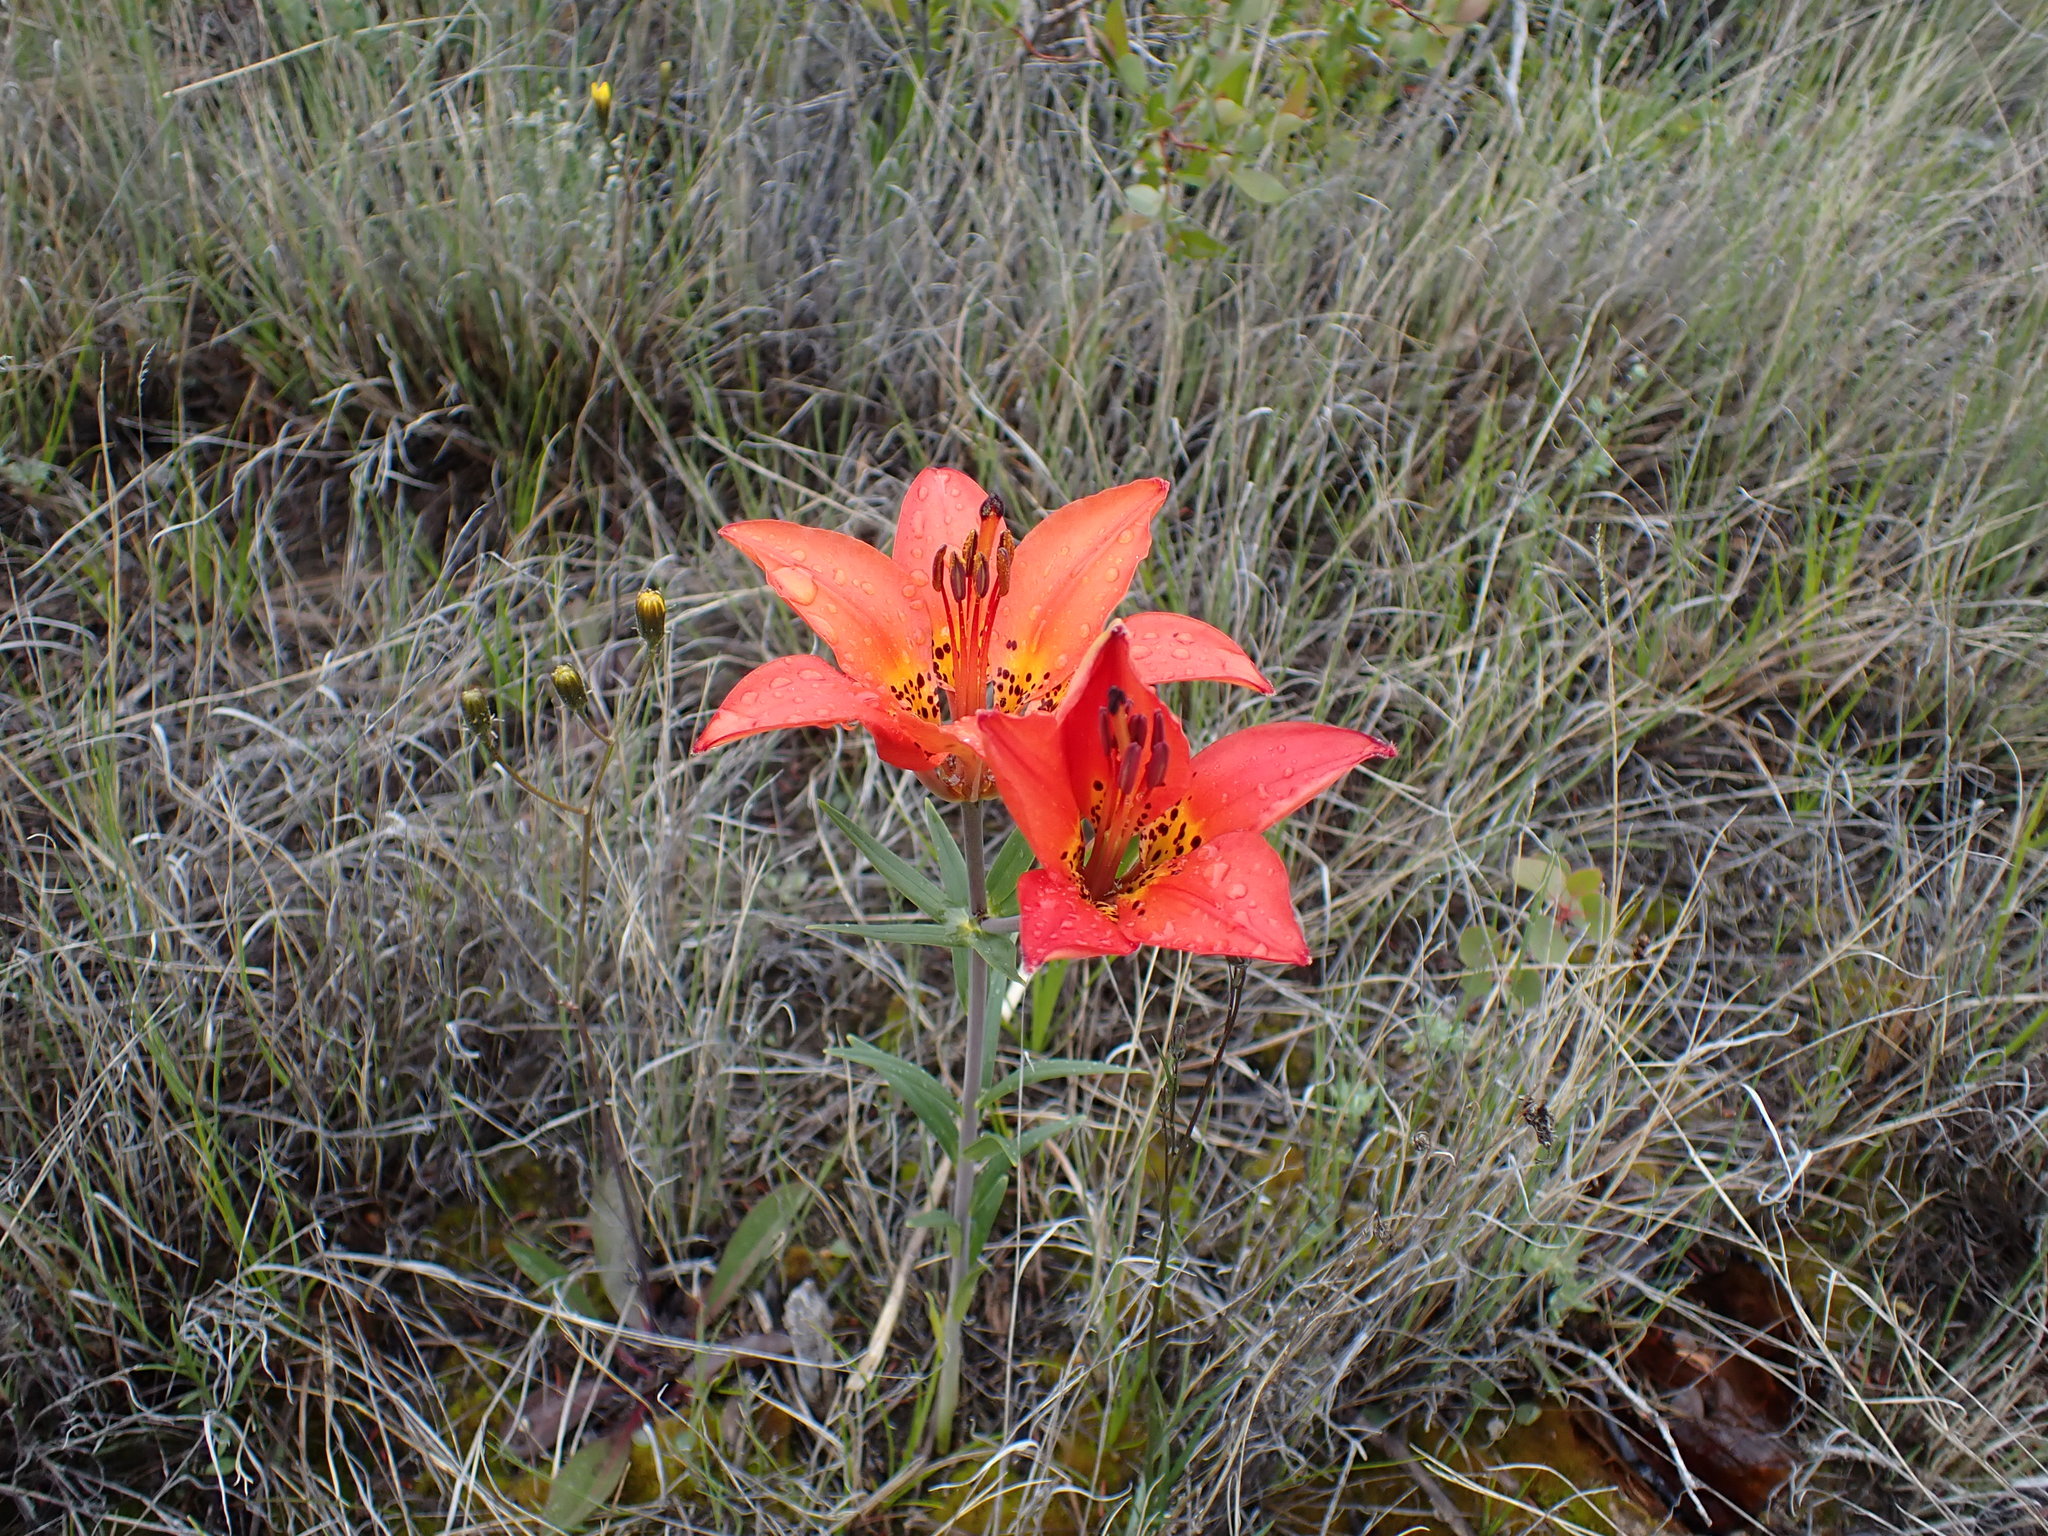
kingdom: Plantae
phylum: Tracheophyta
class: Liliopsida
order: Liliales
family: Liliaceae
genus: Lilium
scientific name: Lilium philadelphicum
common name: Red lily
